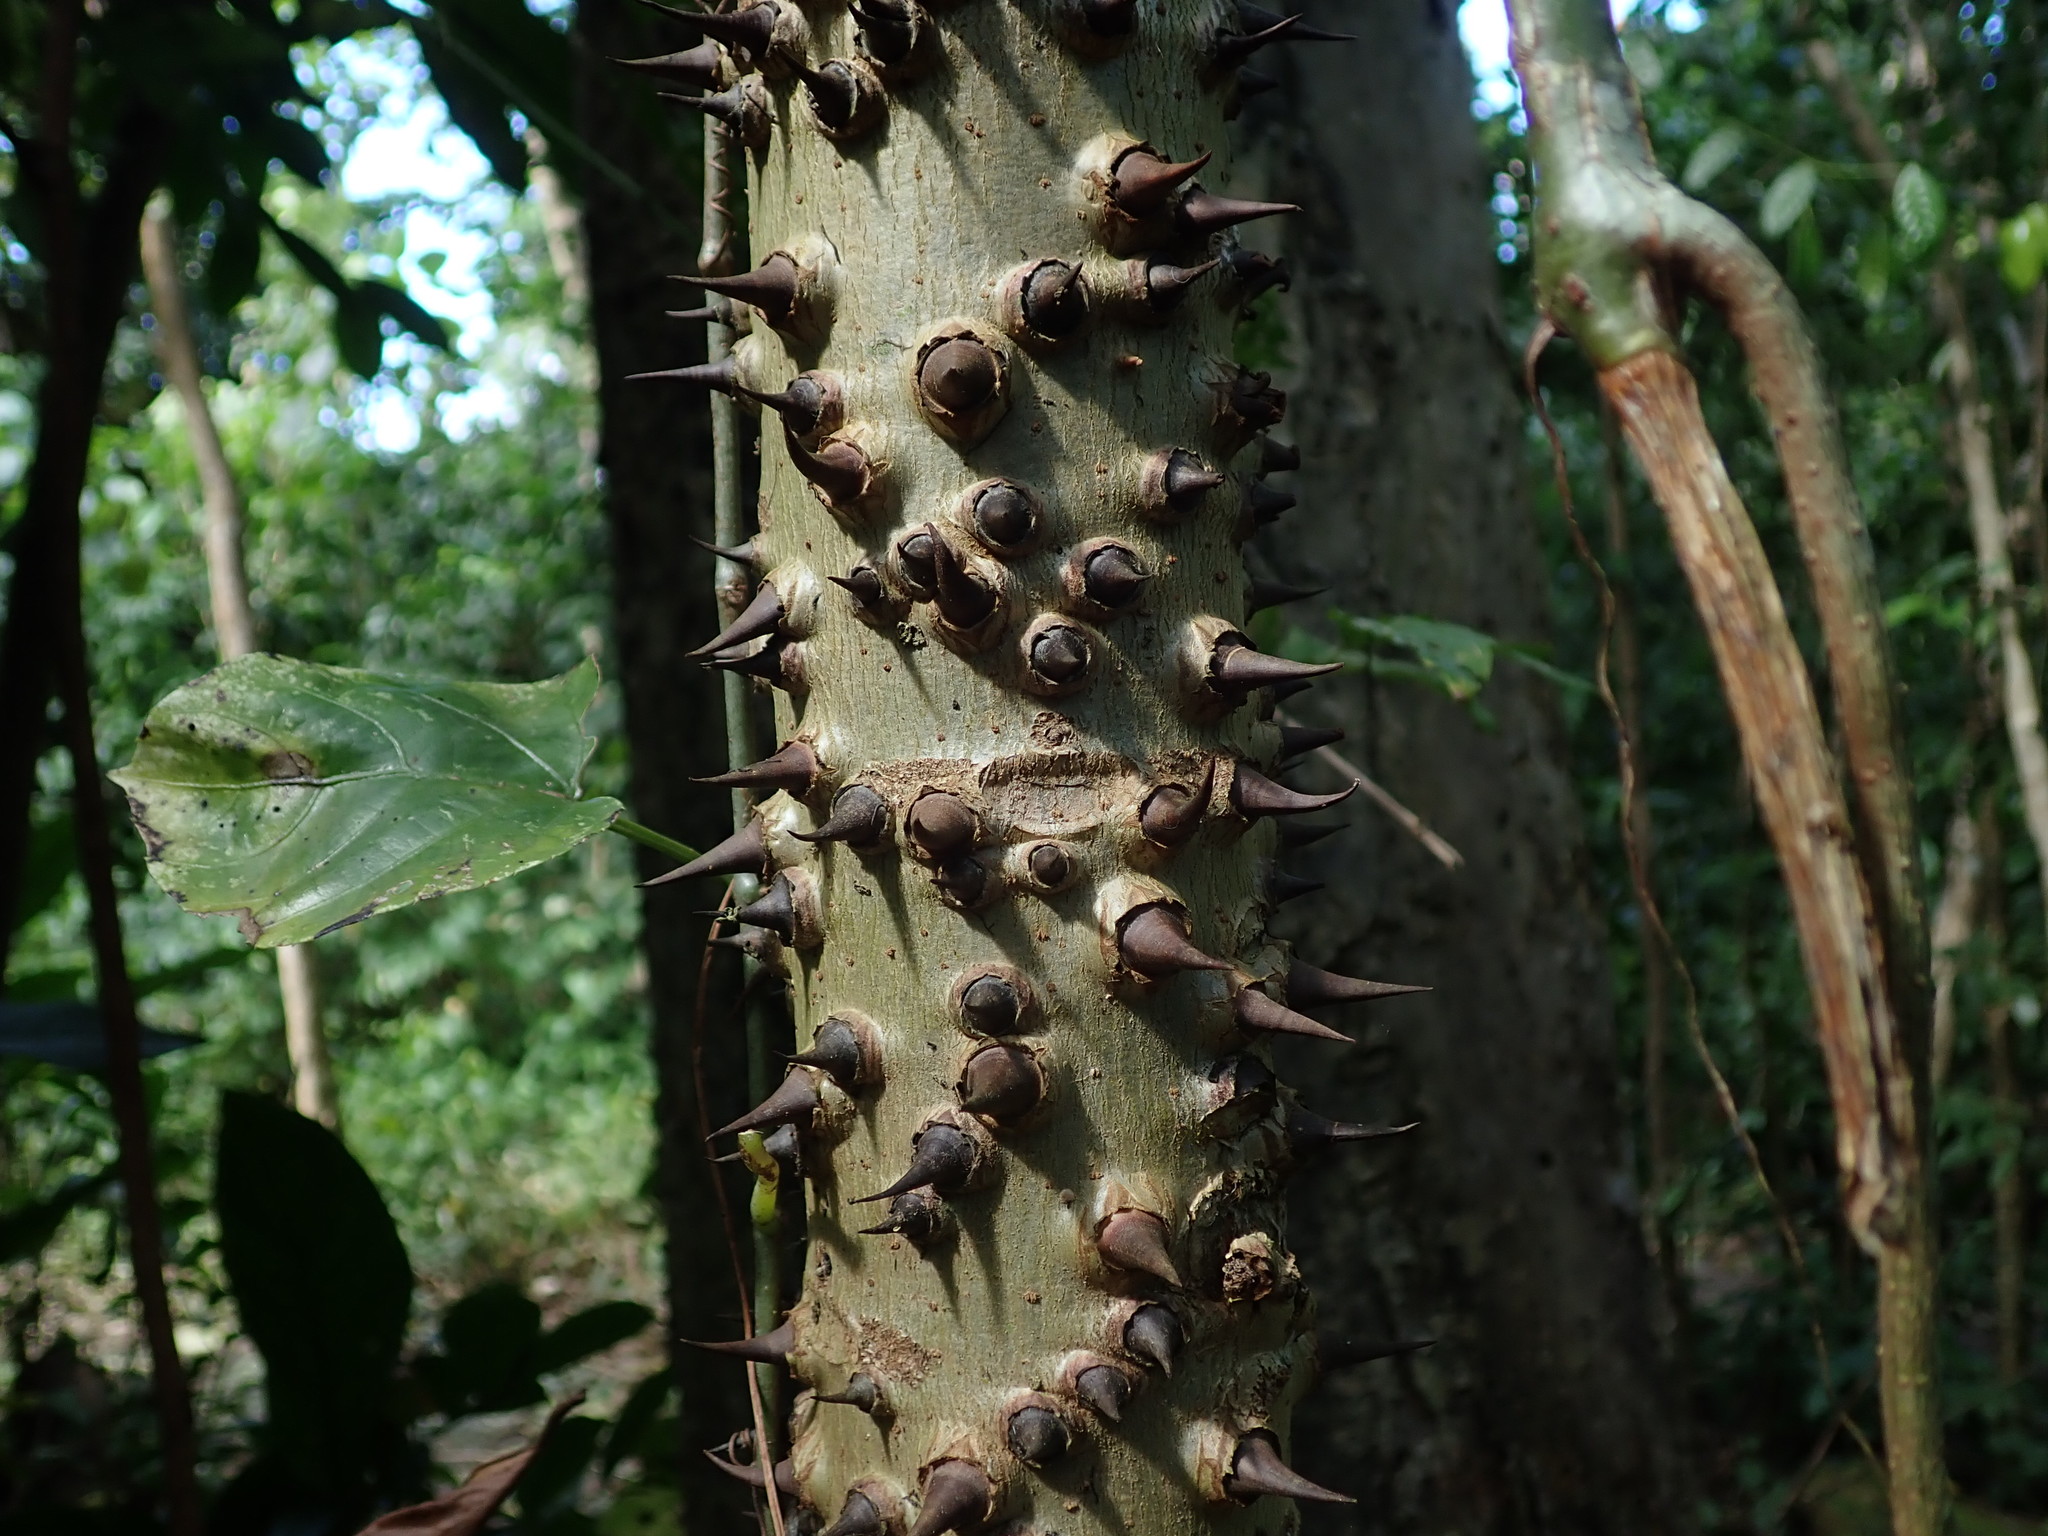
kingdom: Plantae
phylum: Tracheophyta
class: Magnoliopsida
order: Malpighiales
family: Euphorbiaceae
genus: Hura
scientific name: Hura crepitans
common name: Sandboxtree
